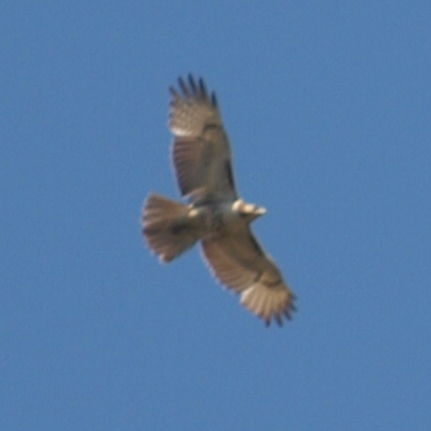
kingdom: Animalia
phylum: Chordata
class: Aves
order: Accipitriformes
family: Accipitridae
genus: Buteo
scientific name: Buteo jamaicensis
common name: Red-tailed hawk
